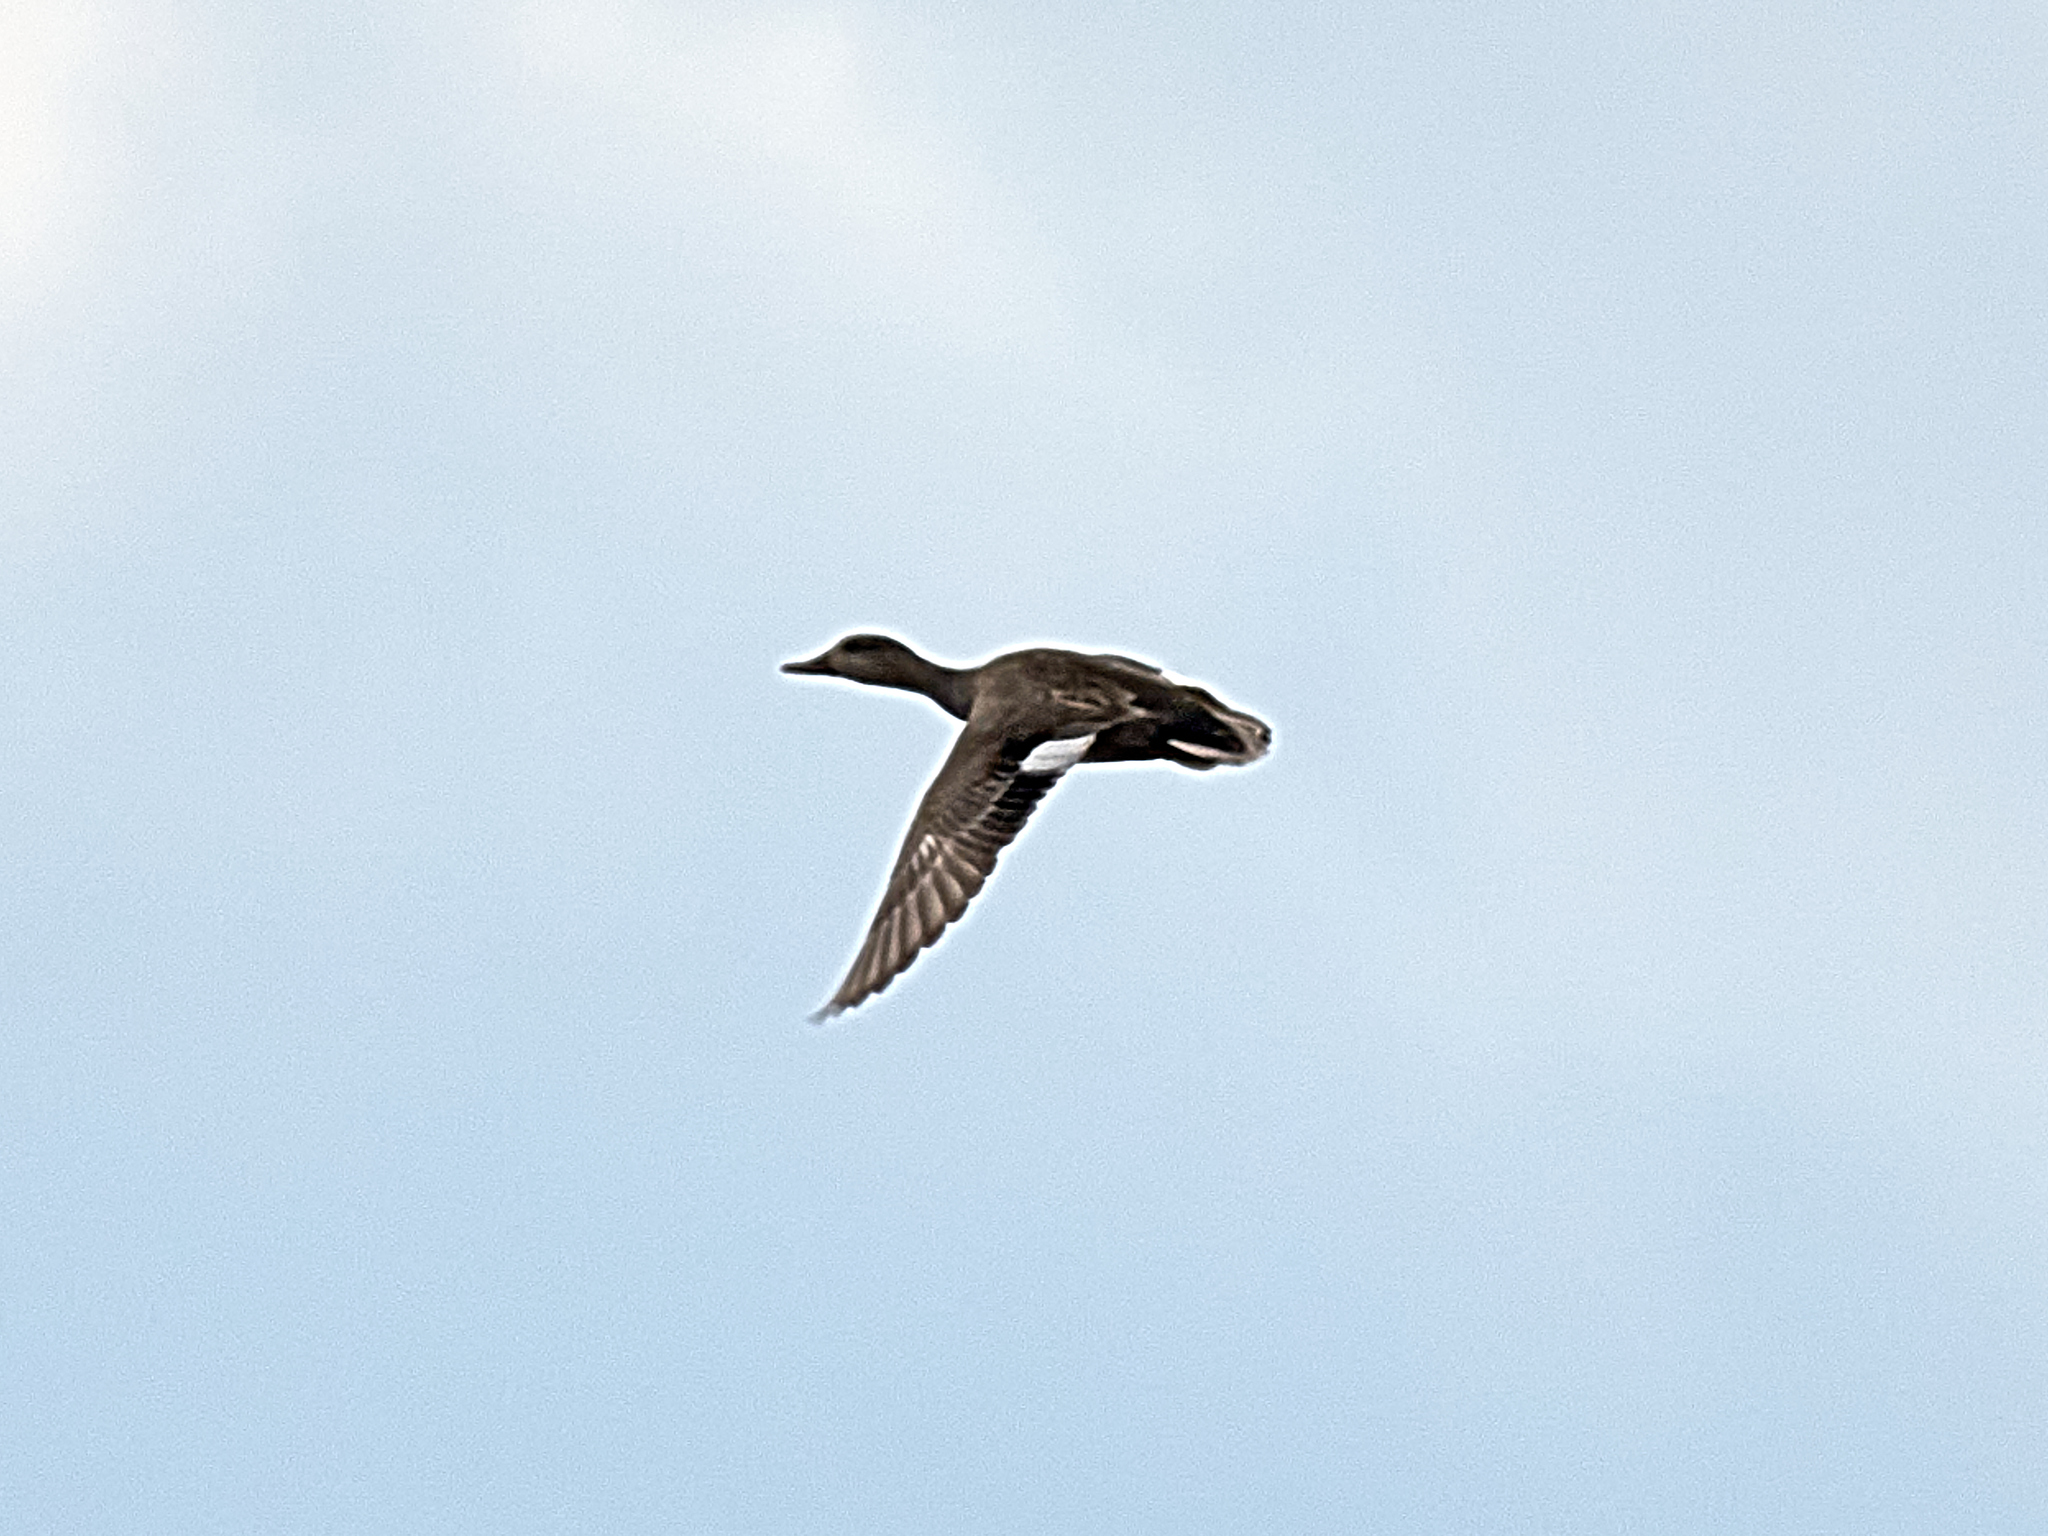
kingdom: Animalia
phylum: Chordata
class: Aves
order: Anseriformes
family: Anatidae
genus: Mareca
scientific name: Mareca strepera
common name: Gadwall
